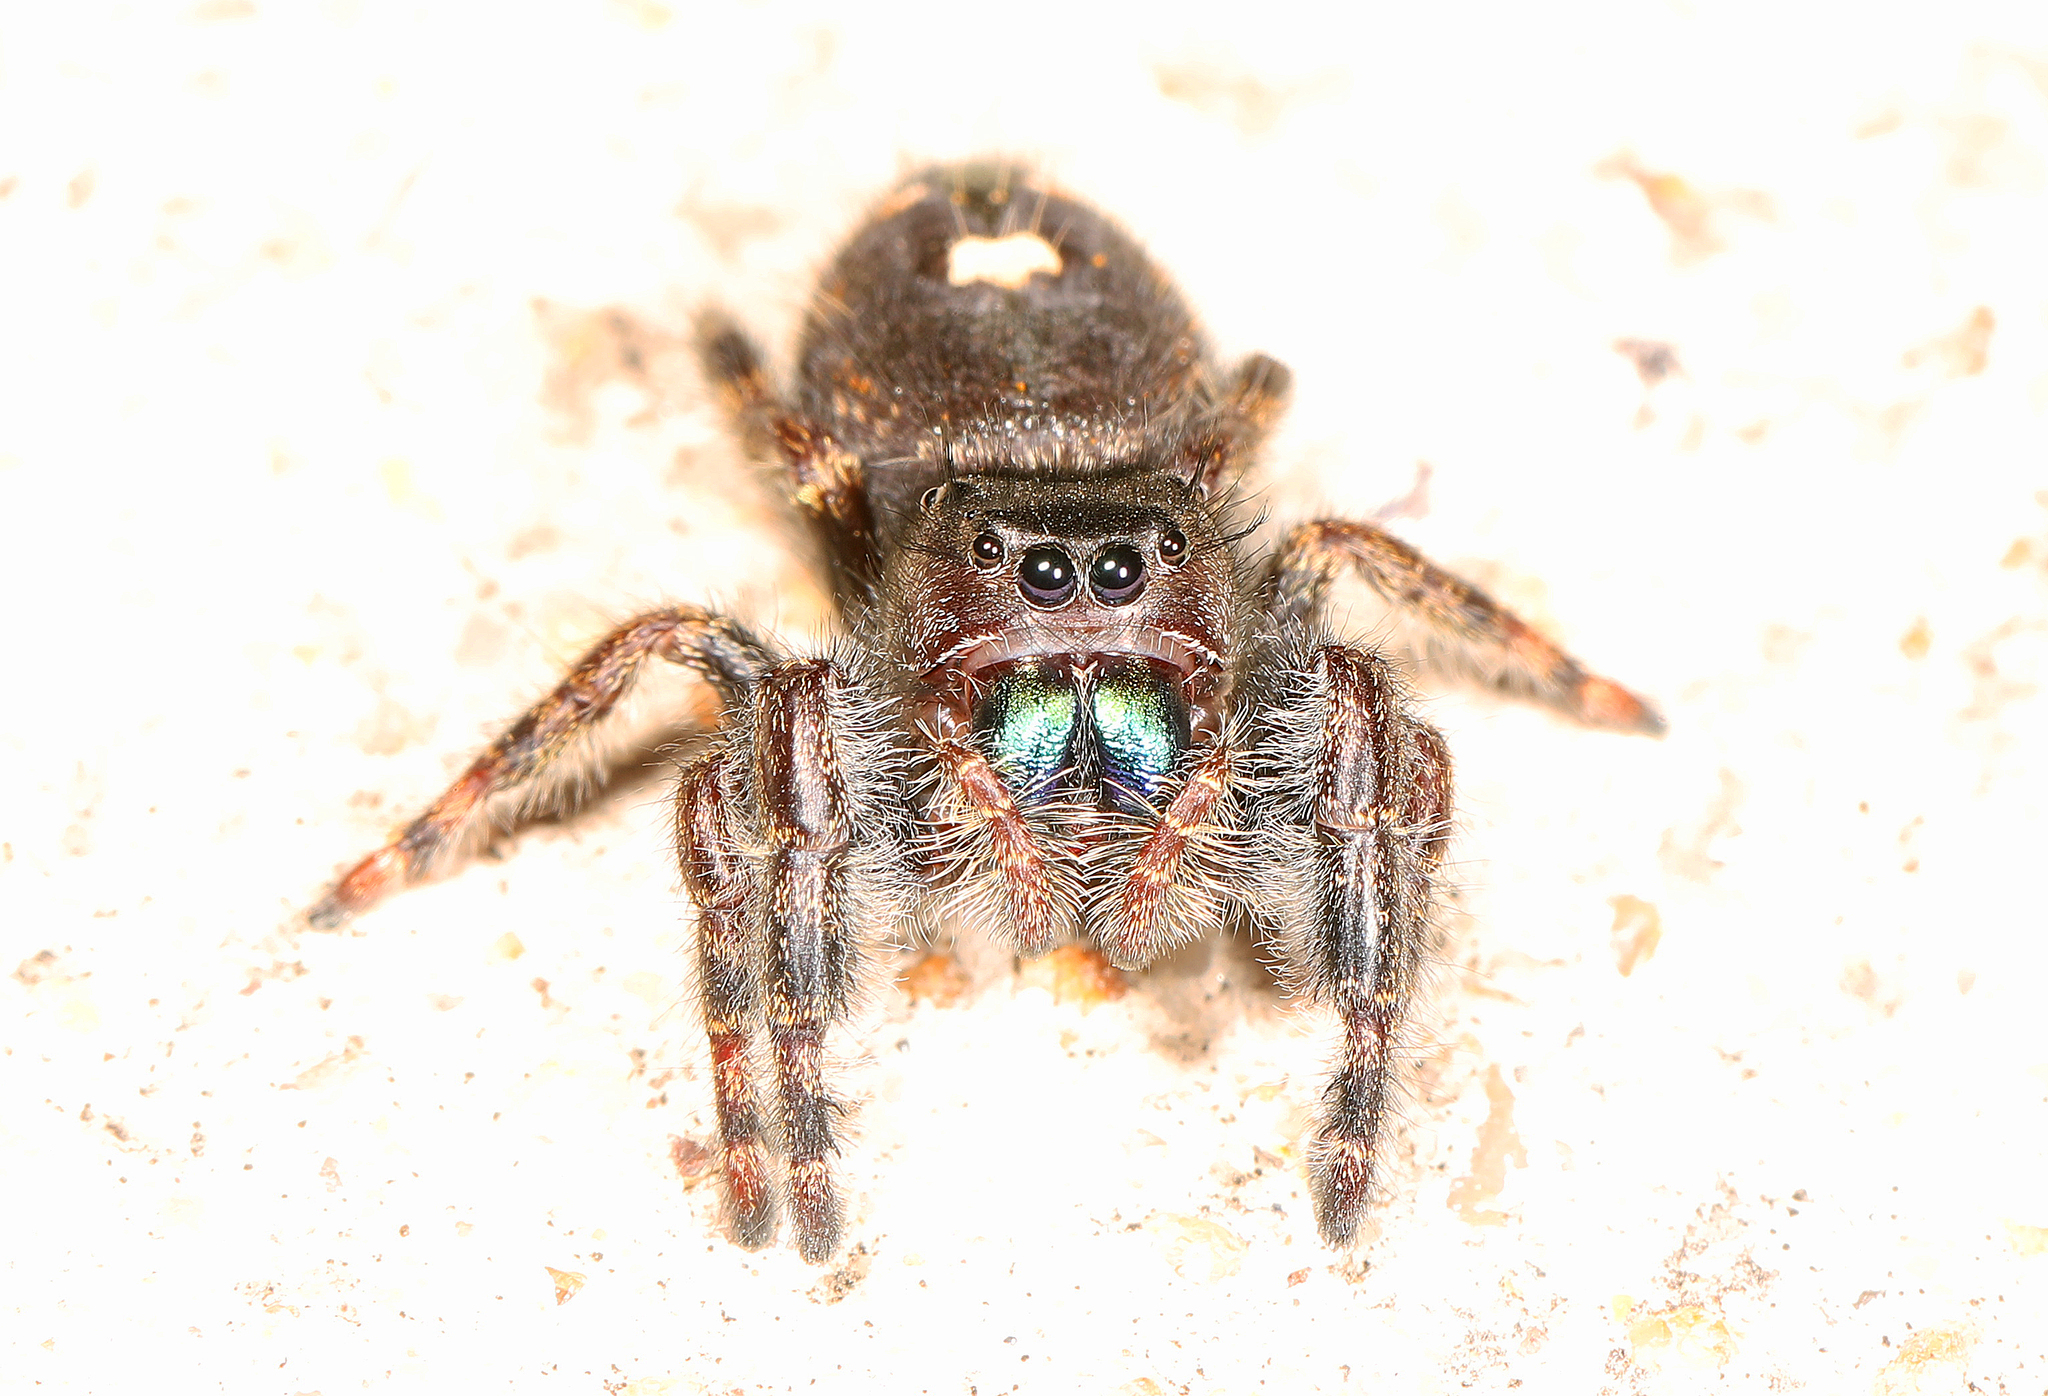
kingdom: Animalia
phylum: Arthropoda
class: Arachnida
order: Araneae
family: Salticidae
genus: Phidippus
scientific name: Phidippus audax
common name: Bold jumper
